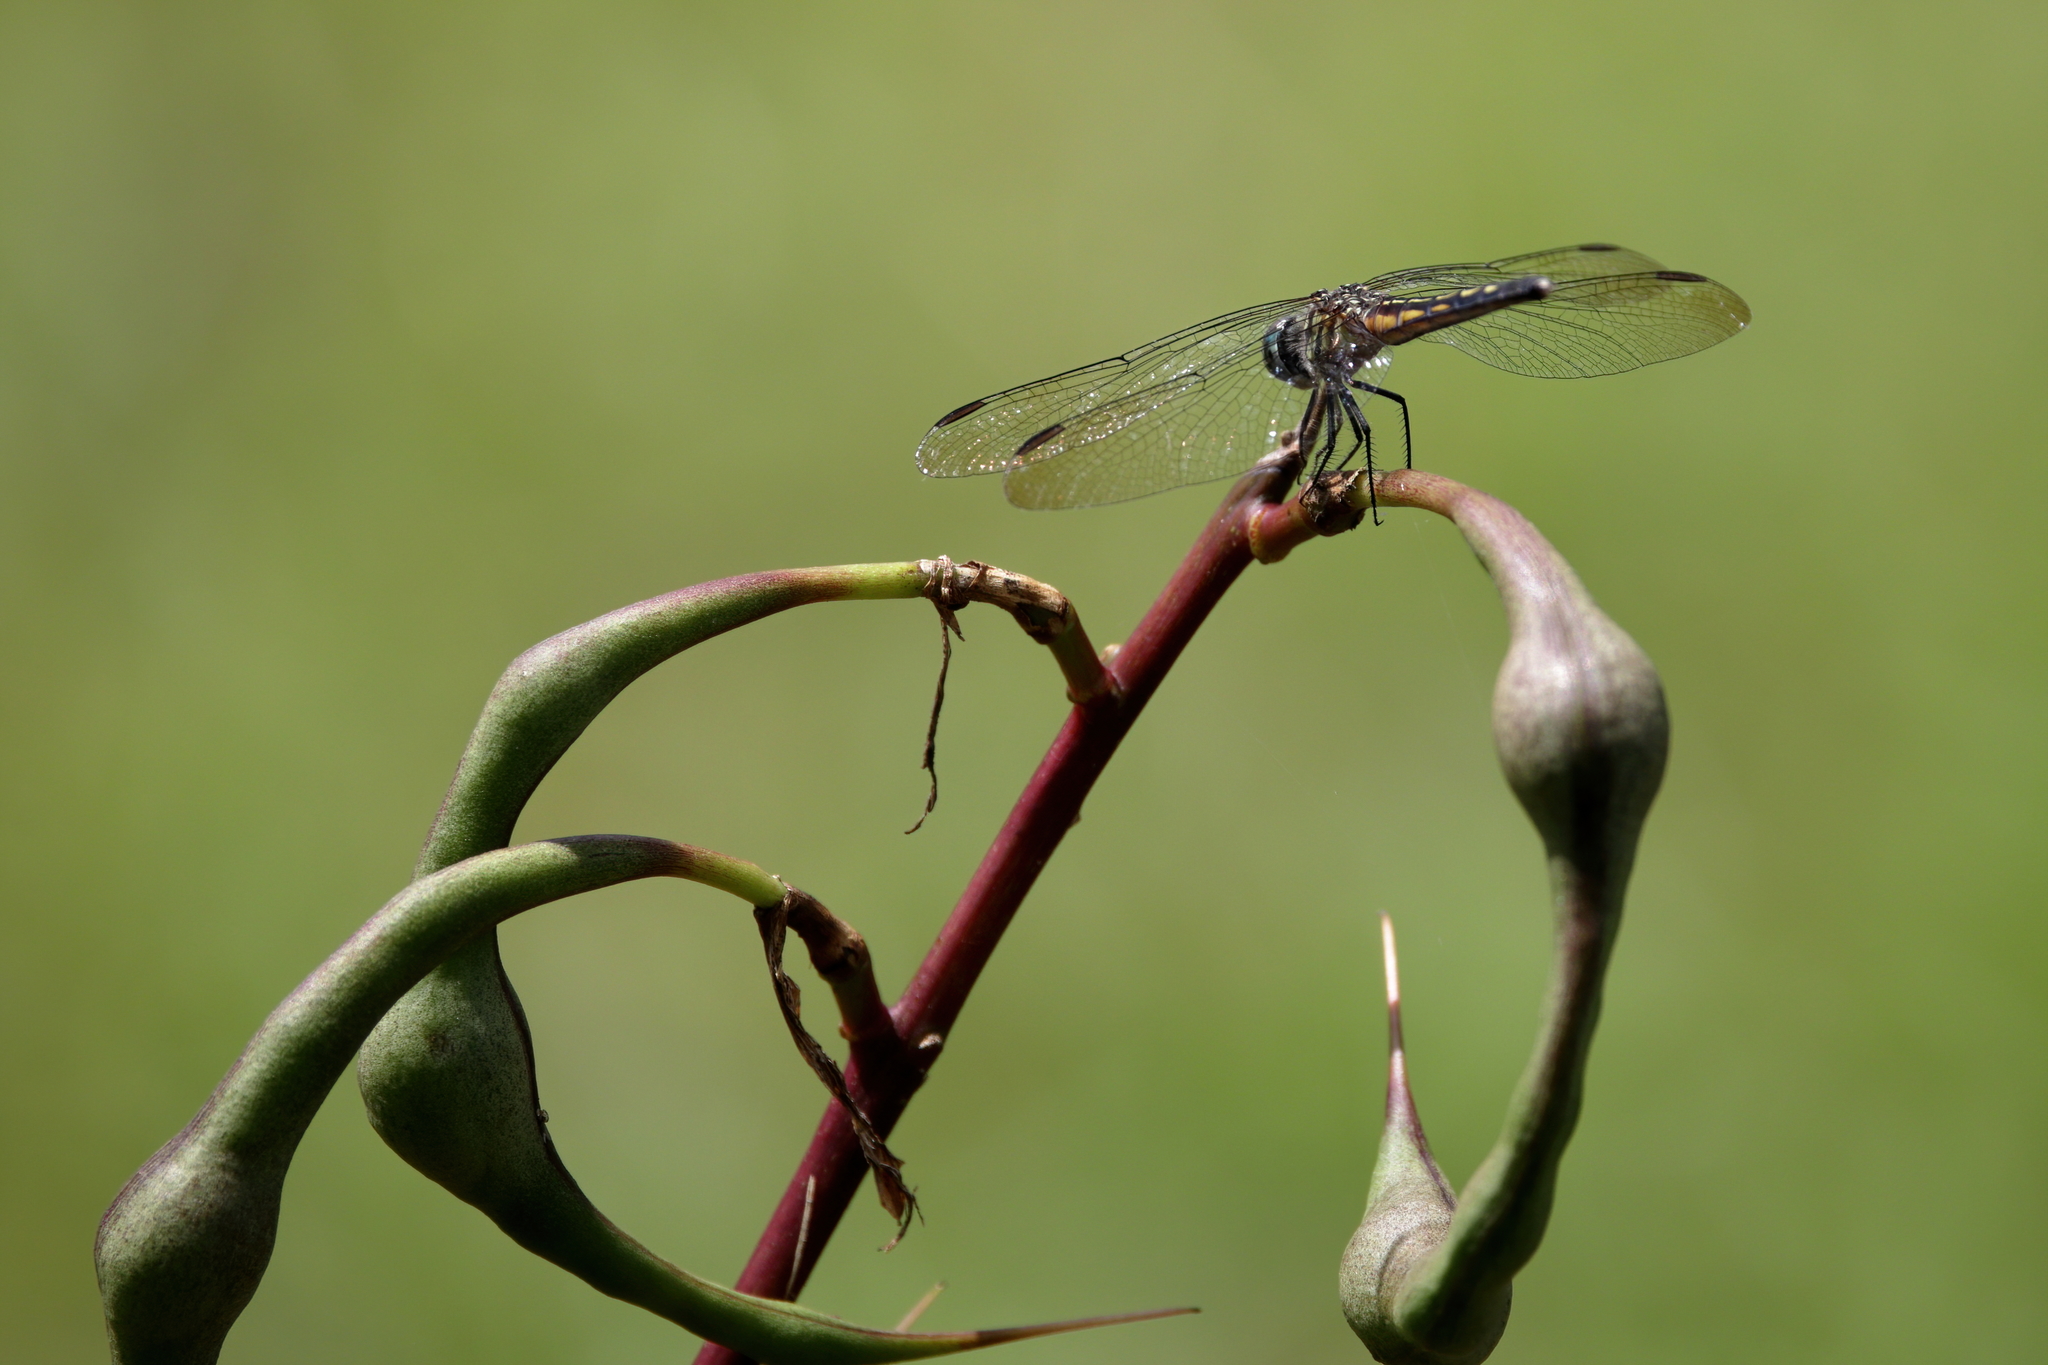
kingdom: Animalia
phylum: Arthropoda
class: Insecta
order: Odonata
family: Libellulidae
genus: Pachydiplax
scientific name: Pachydiplax longipennis
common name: Blue dasher
